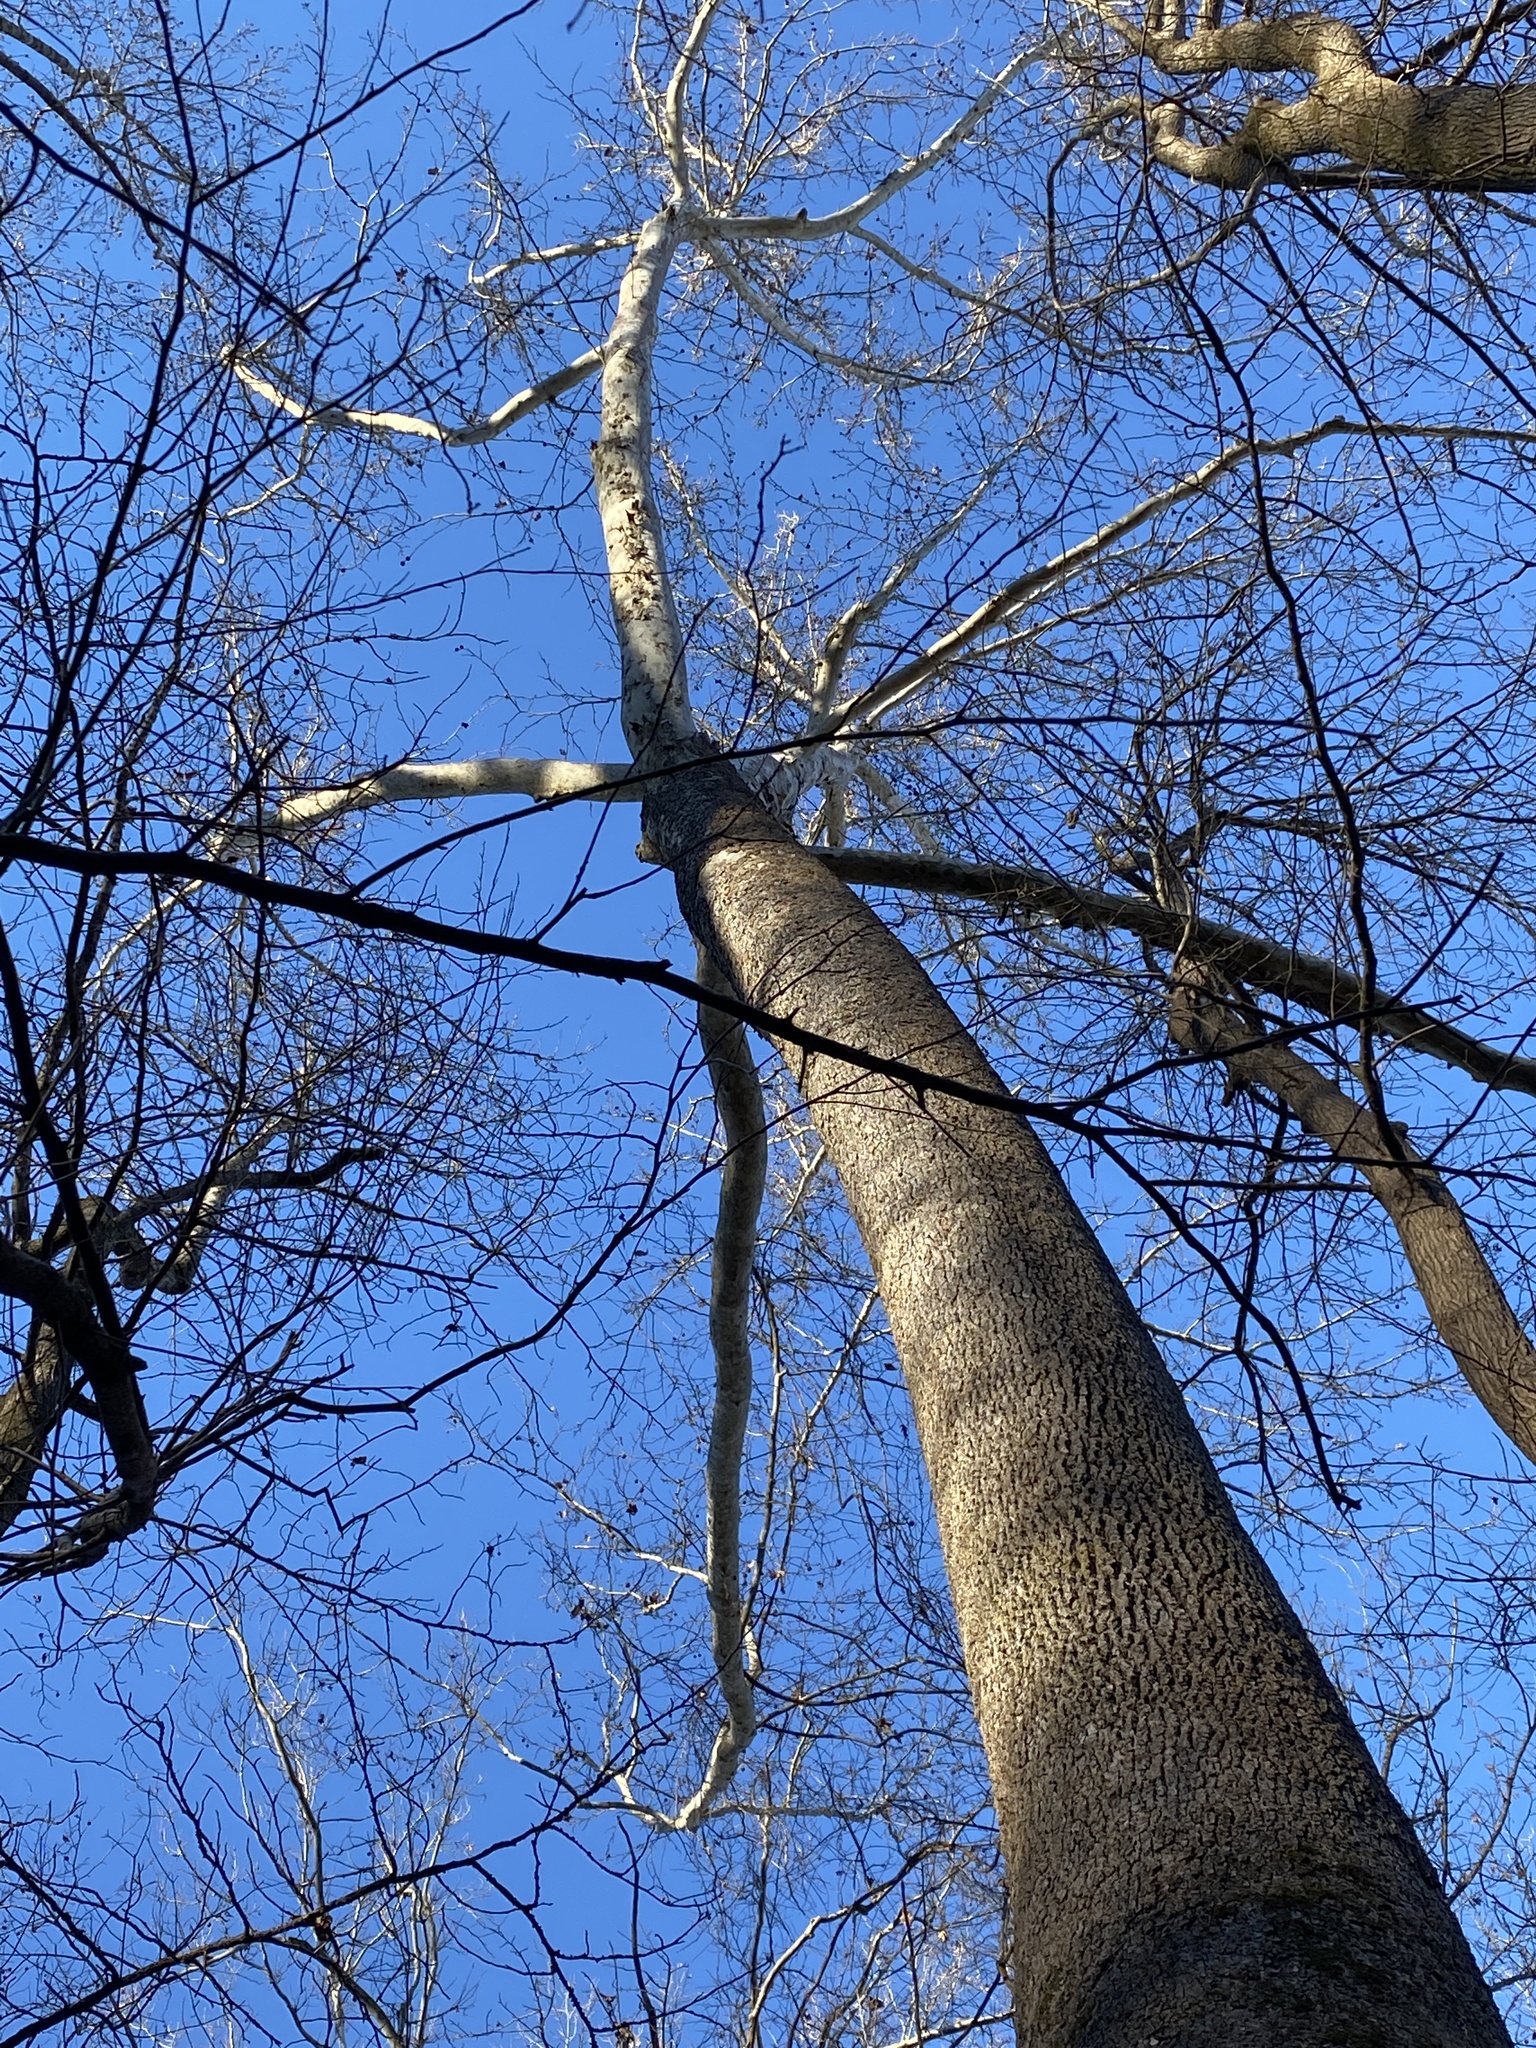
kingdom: Plantae
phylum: Tracheophyta
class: Magnoliopsida
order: Proteales
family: Platanaceae
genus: Platanus
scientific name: Platanus occidentalis
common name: American sycamore
